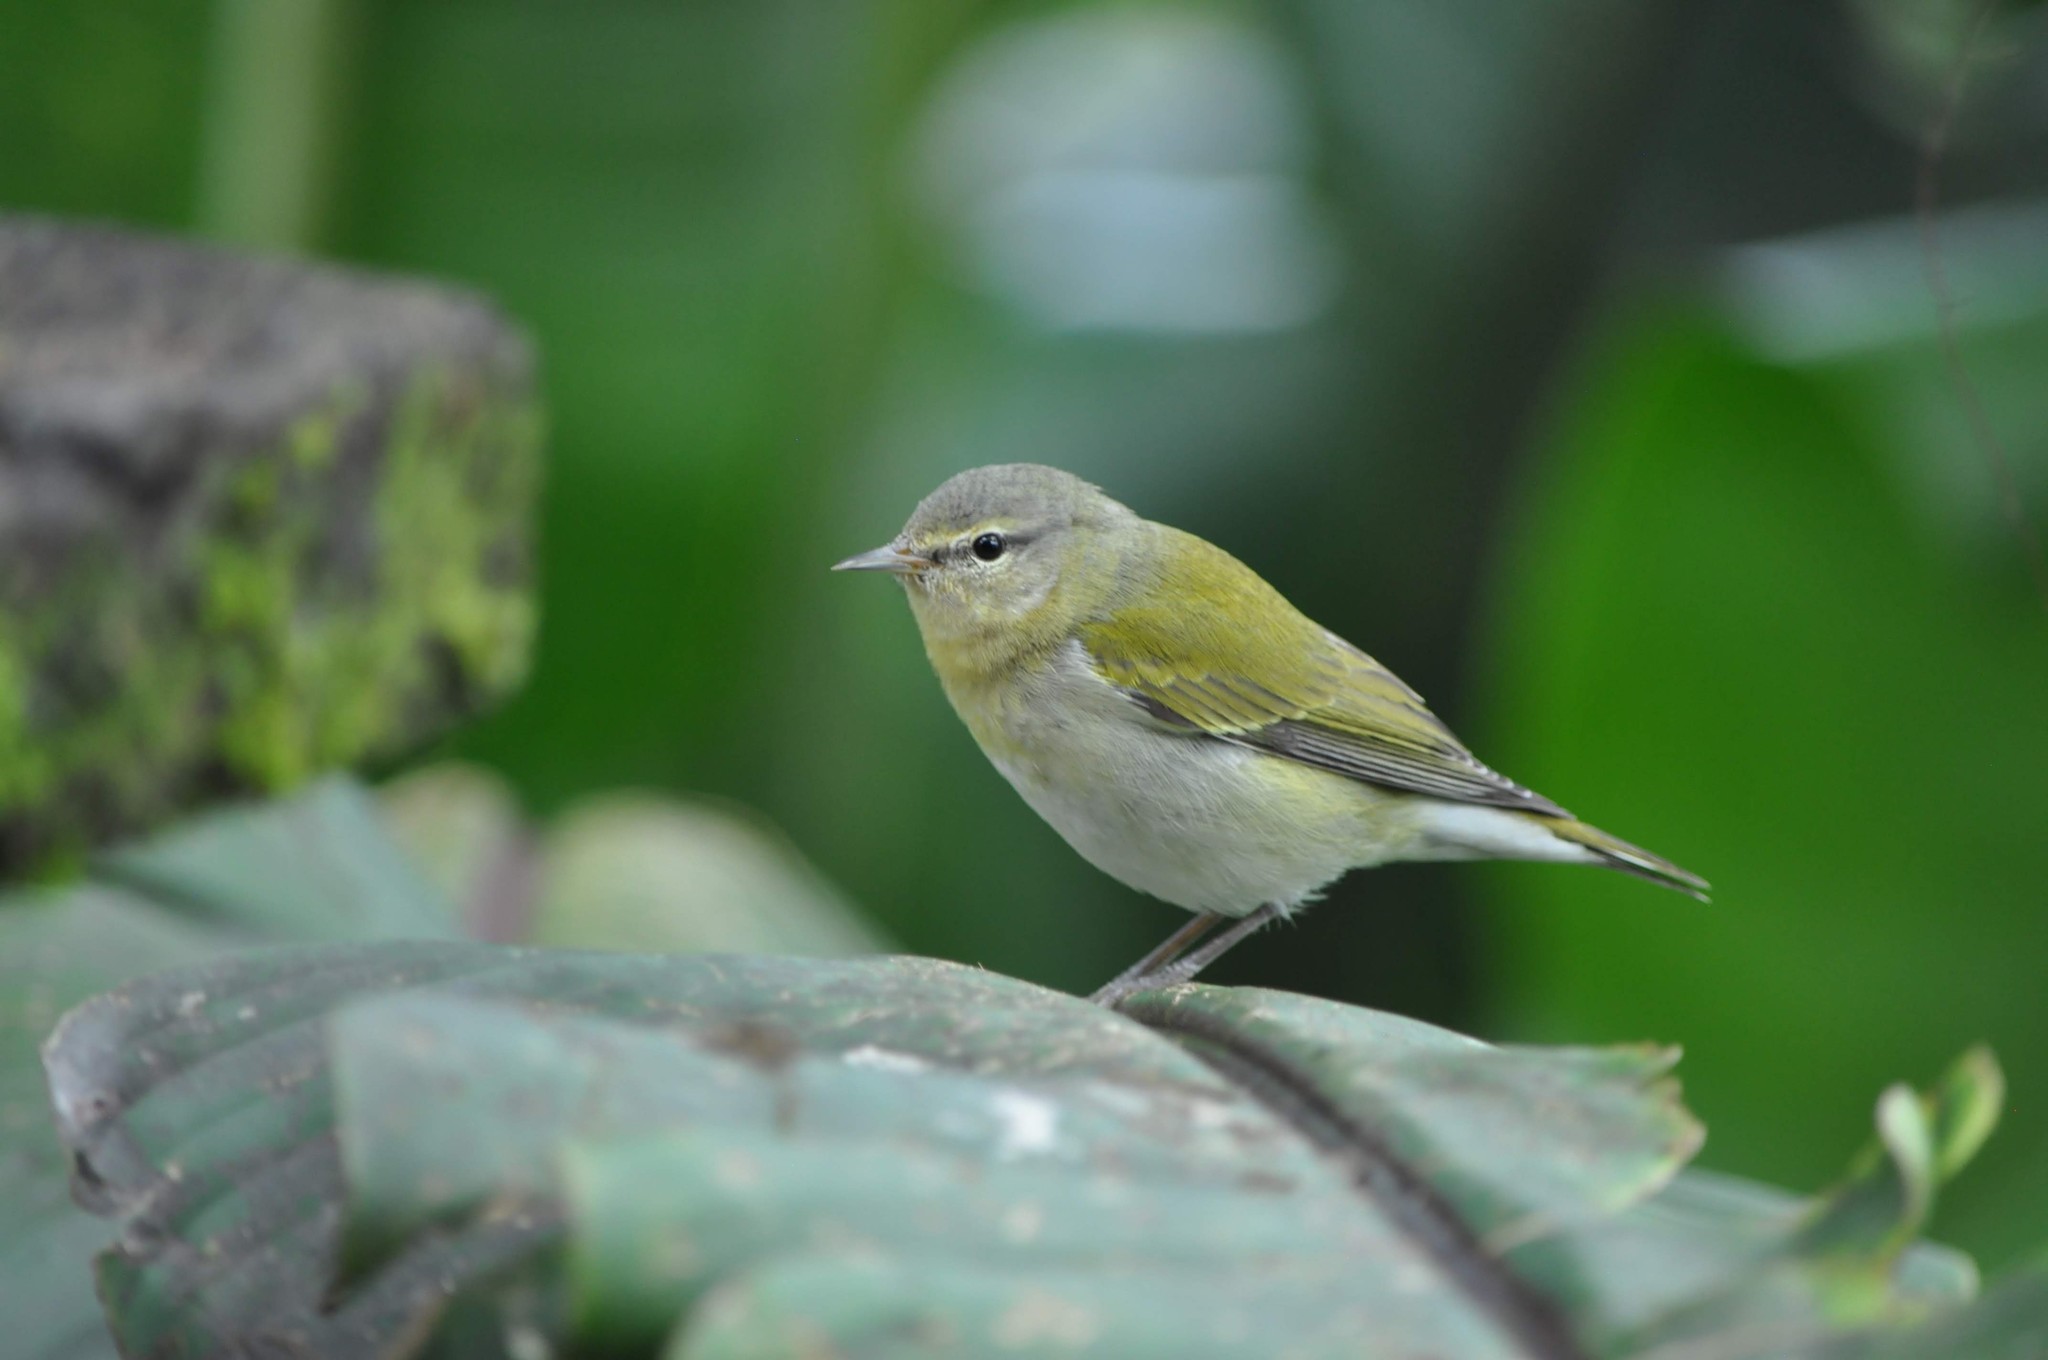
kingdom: Animalia
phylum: Chordata
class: Aves
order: Passeriformes
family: Parulidae
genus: Leiothlypis
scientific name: Leiothlypis peregrina
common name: Tennessee warbler
